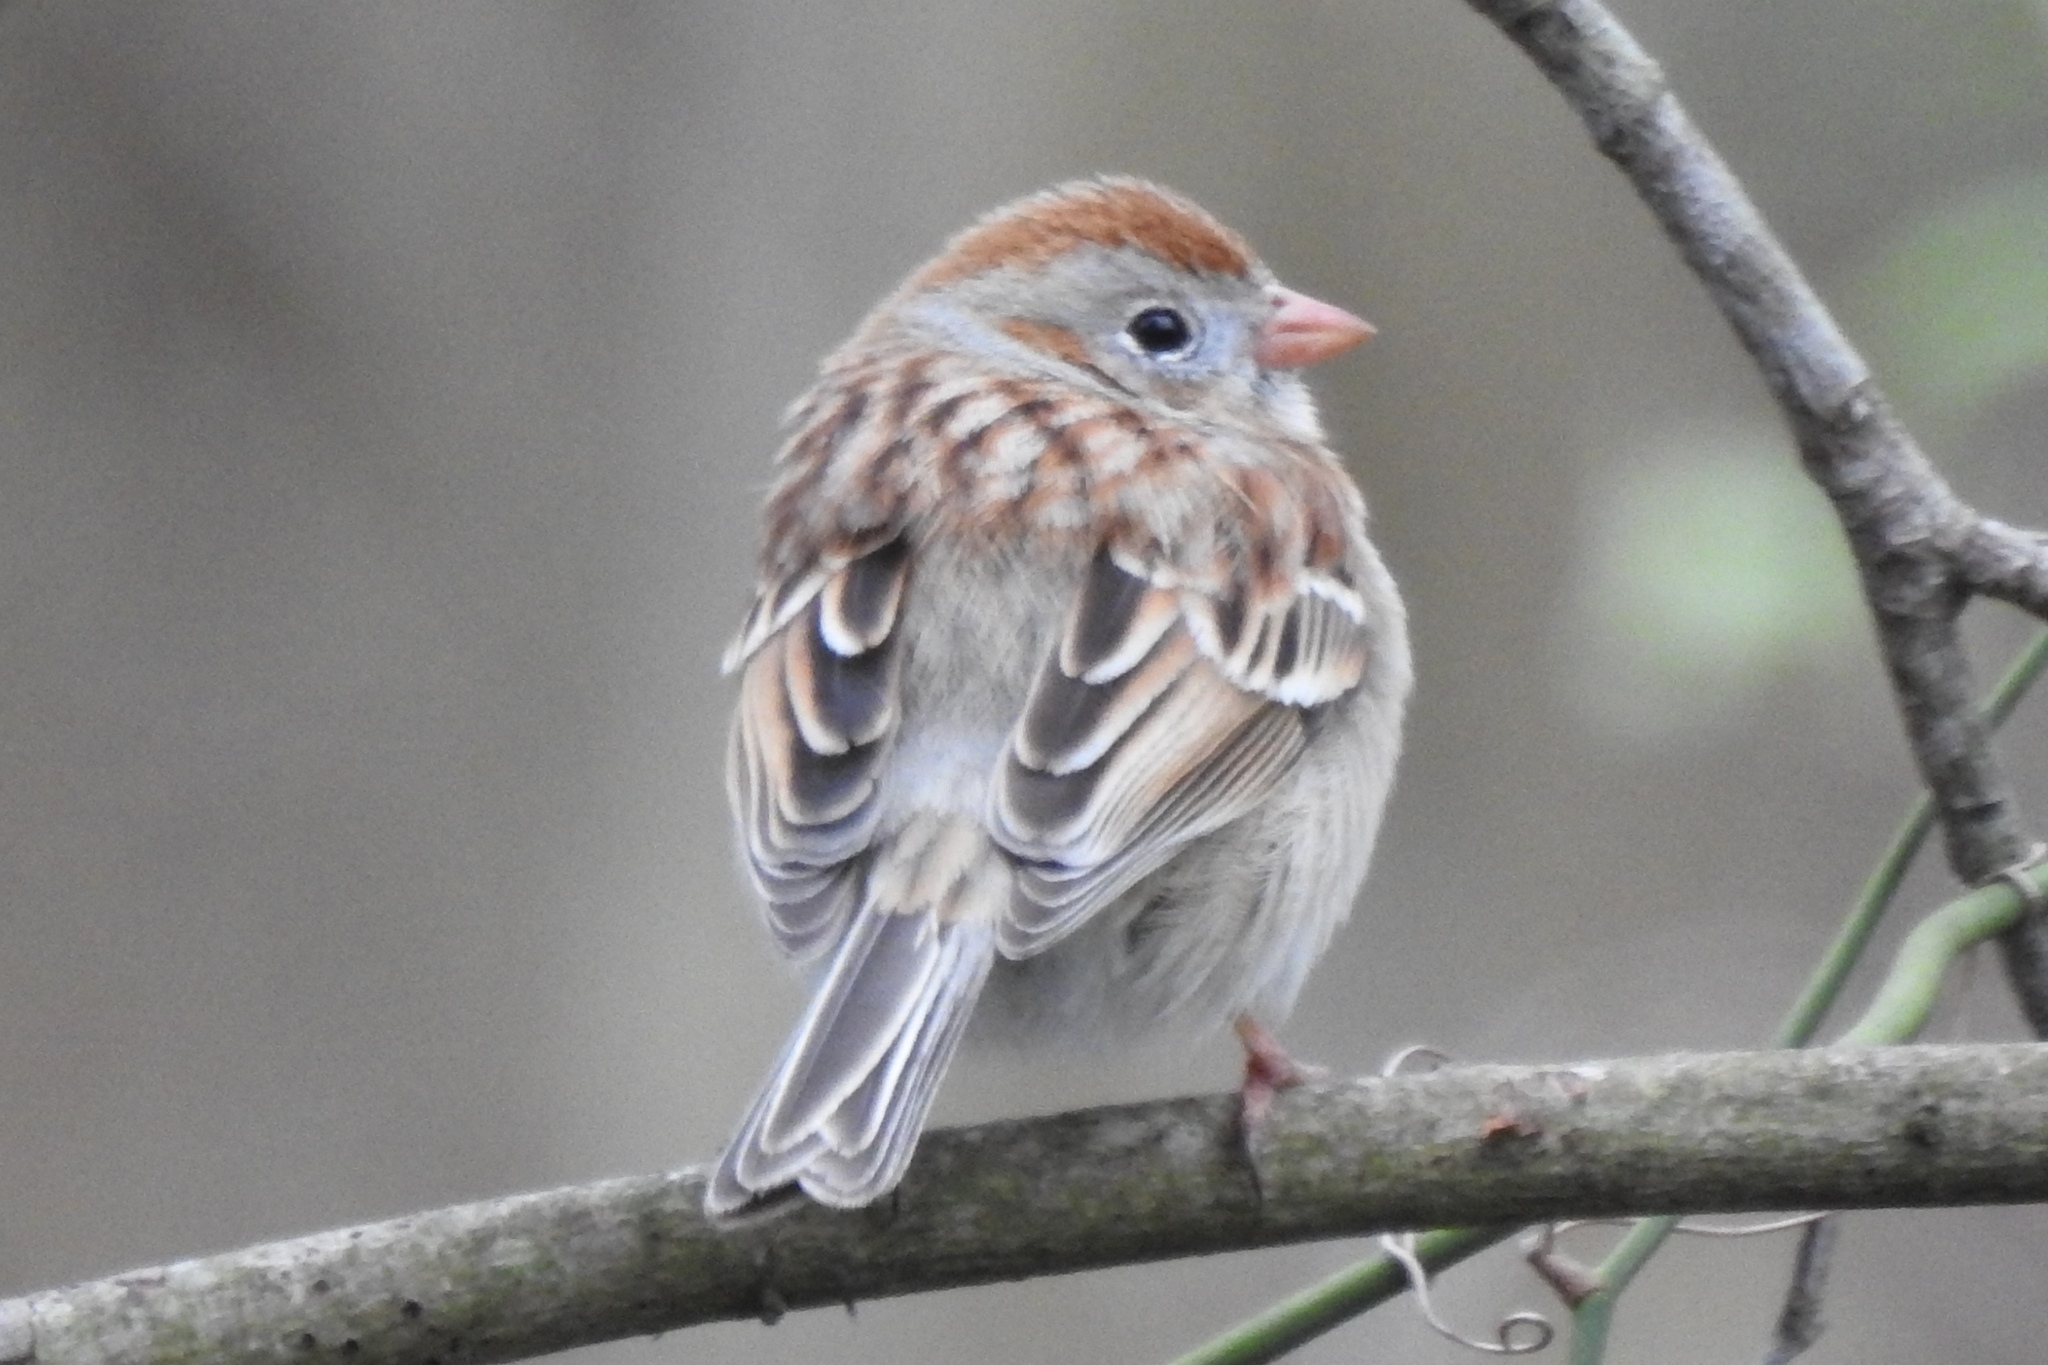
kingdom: Animalia
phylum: Chordata
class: Aves
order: Passeriformes
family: Passerellidae
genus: Spizella
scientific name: Spizella pusilla
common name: Field sparrow
